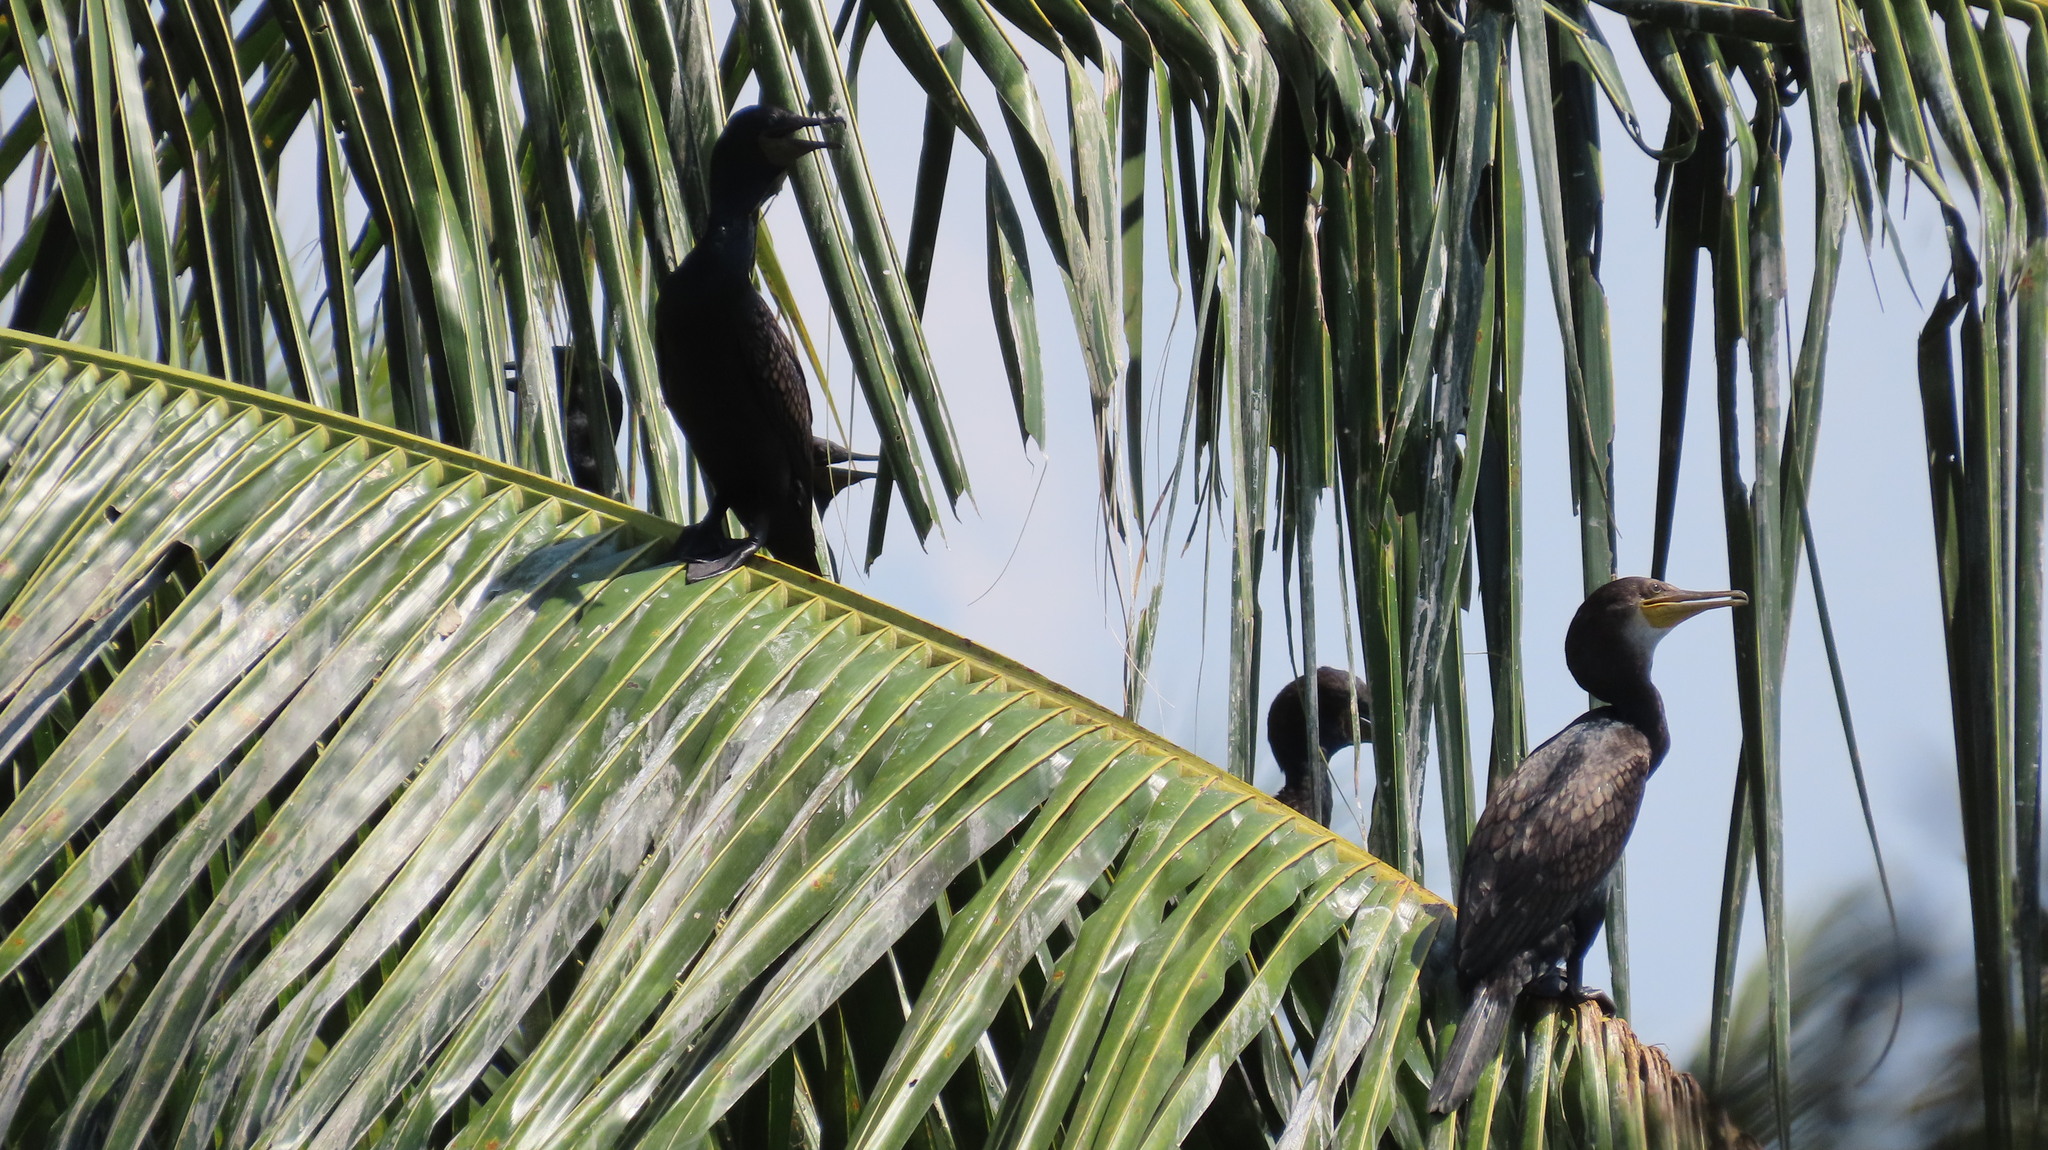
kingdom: Animalia
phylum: Chordata
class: Aves
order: Suliformes
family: Phalacrocoracidae
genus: Phalacrocorax
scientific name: Phalacrocorax fuscicollis
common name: Indian cormorant
